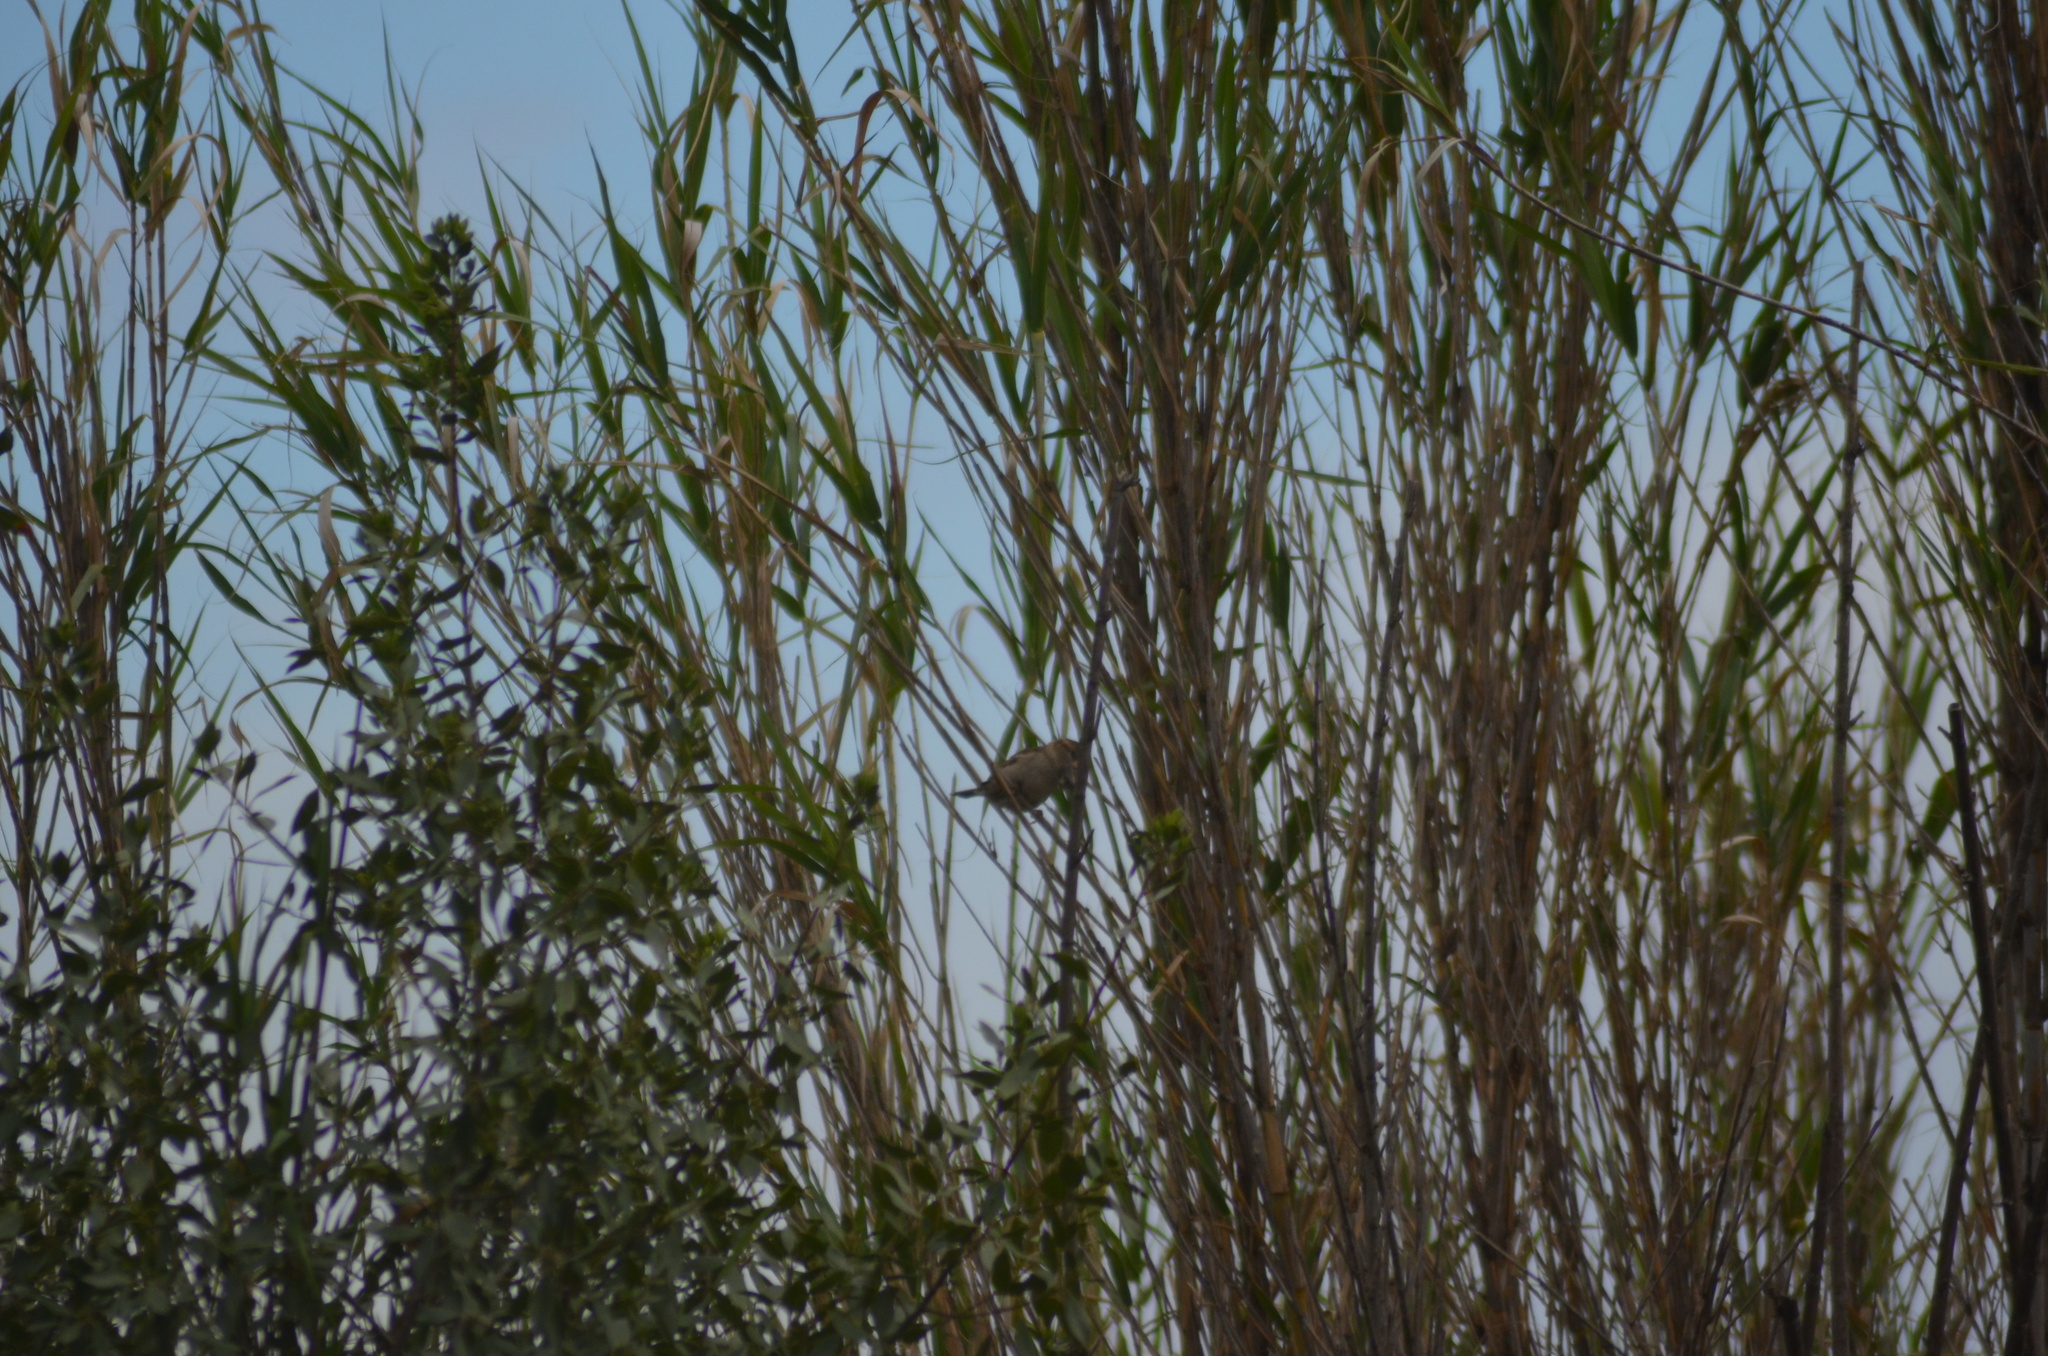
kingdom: Animalia
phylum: Chordata
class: Aves
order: Passeriformes
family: Passeridae
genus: Passer
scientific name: Passer domesticus
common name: House sparrow
